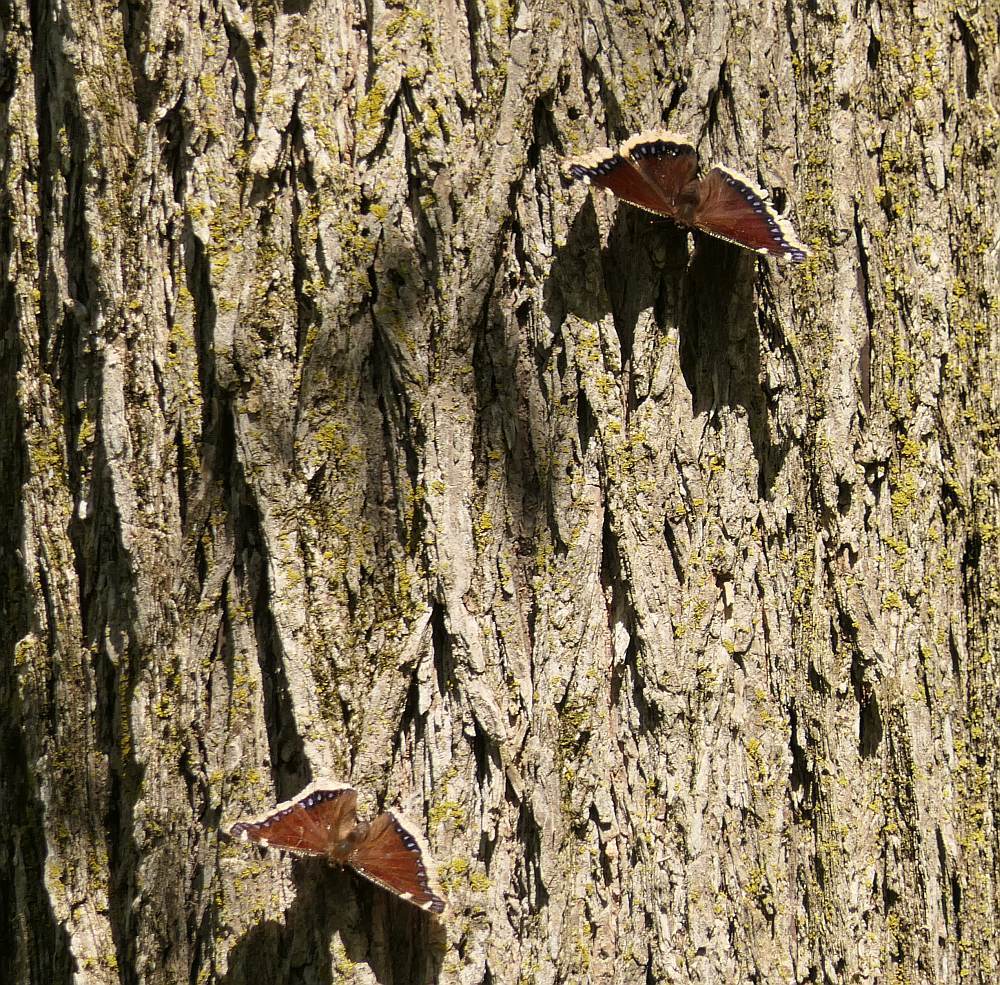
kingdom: Animalia
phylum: Arthropoda
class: Insecta
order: Lepidoptera
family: Nymphalidae
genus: Nymphalis
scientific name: Nymphalis antiopa
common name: Camberwell beauty
